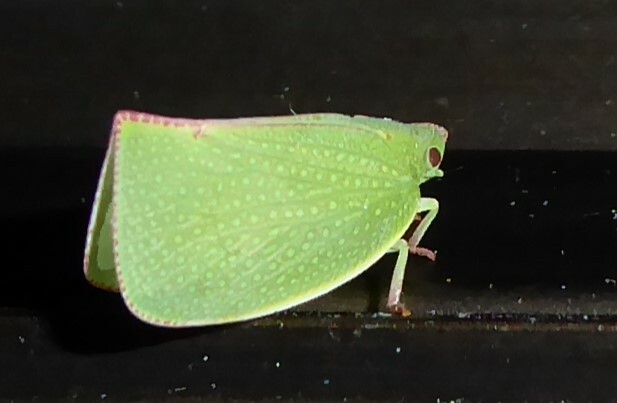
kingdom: Animalia
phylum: Arthropoda
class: Insecta
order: Hemiptera
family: Flatidae
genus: Siphanta
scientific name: Siphanta acuta
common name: Torpedo bug
